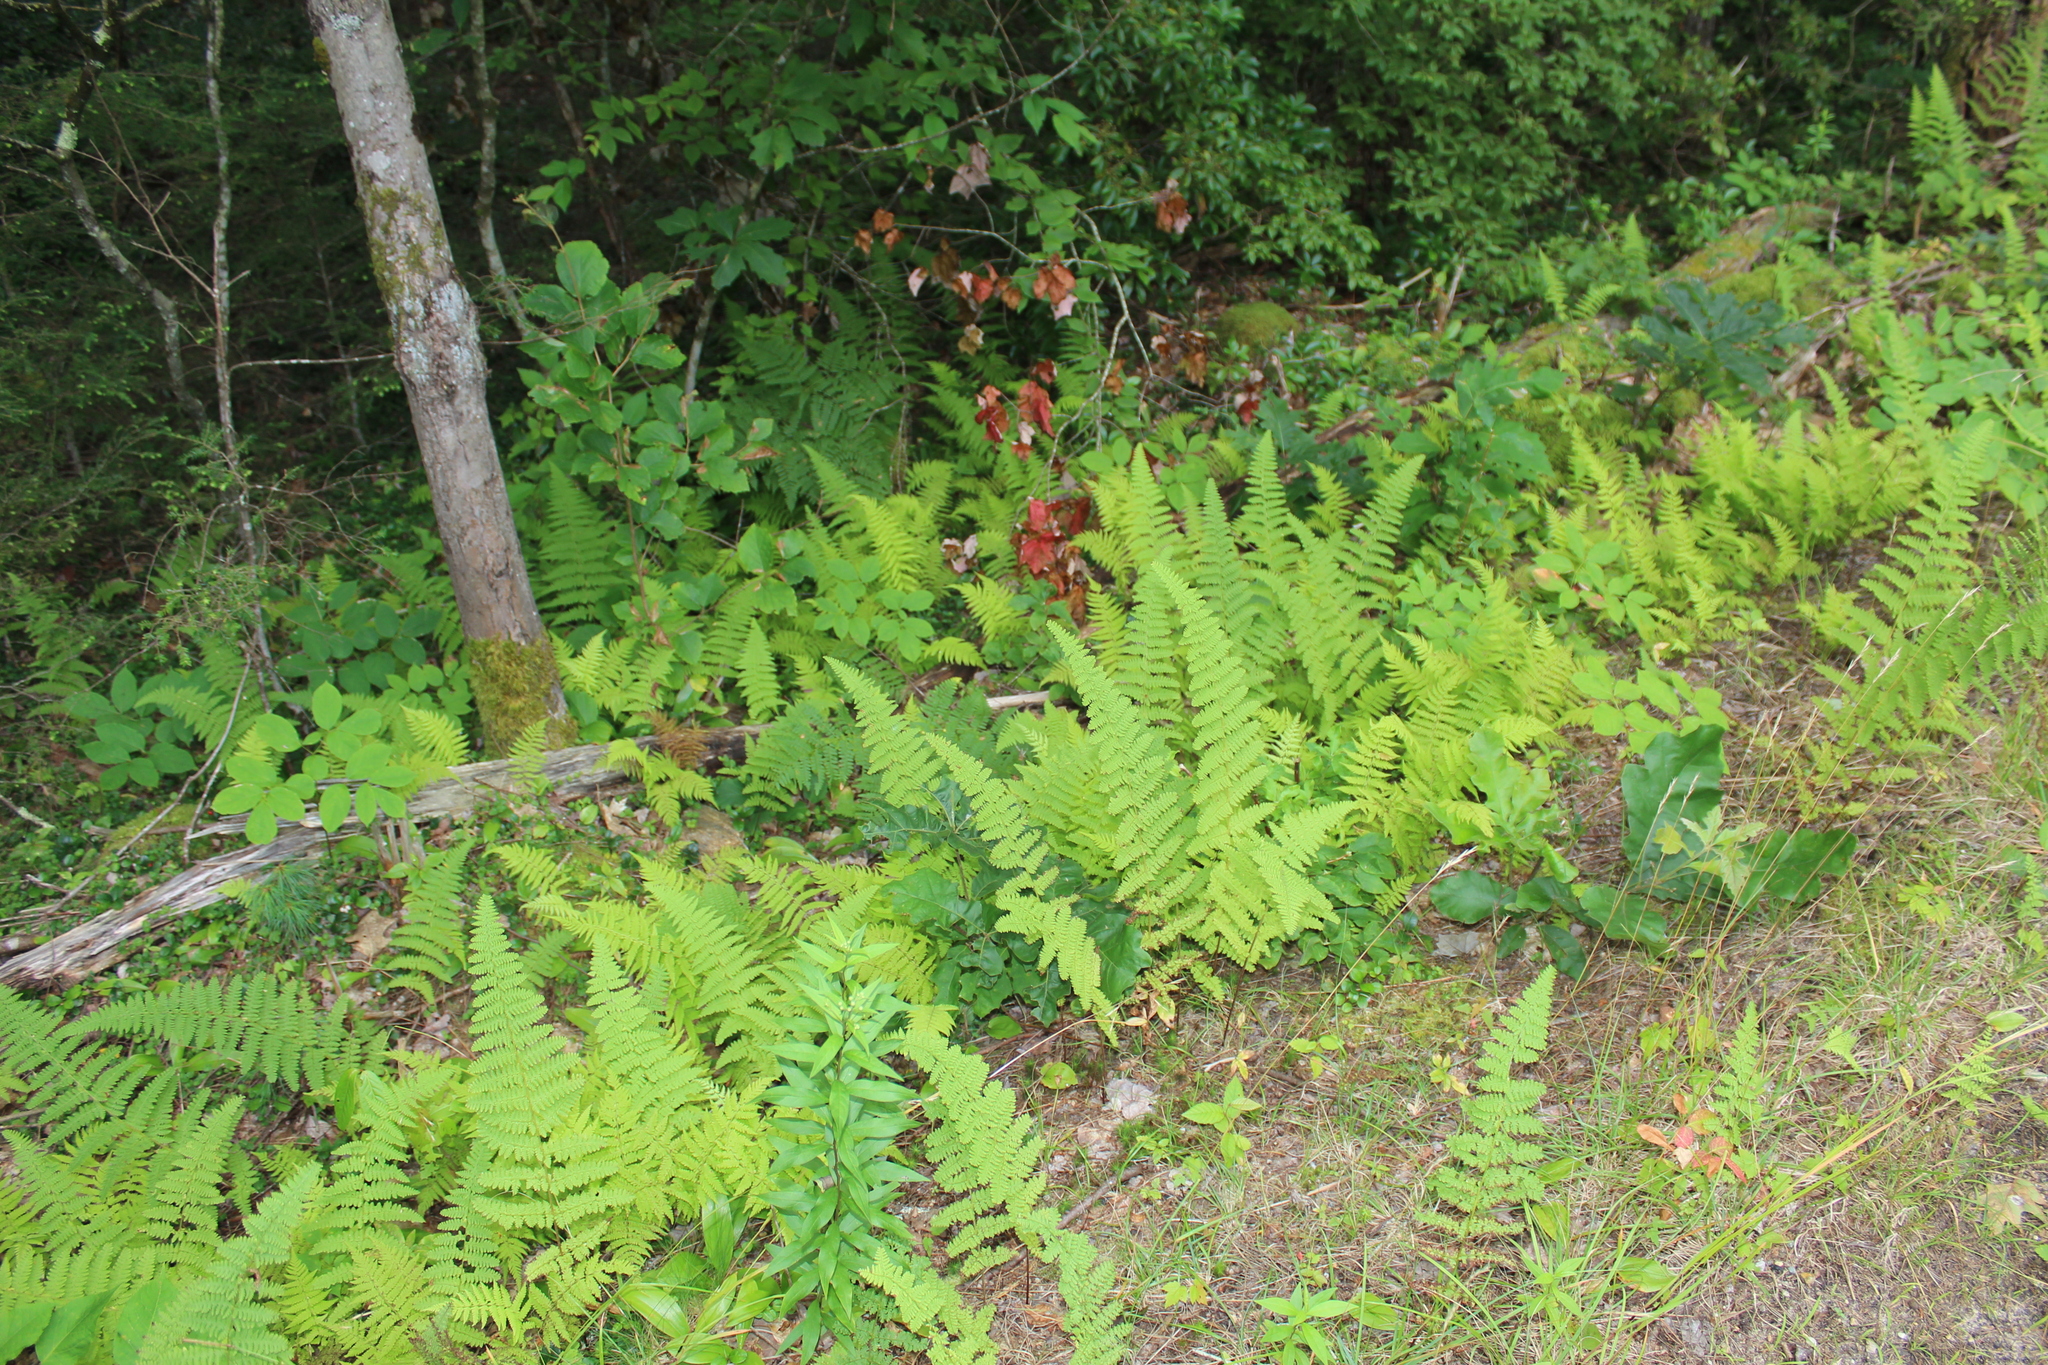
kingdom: Plantae
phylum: Tracheophyta
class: Polypodiopsida
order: Polypodiales
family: Dennstaedtiaceae
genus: Sitobolium
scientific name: Sitobolium punctilobum
